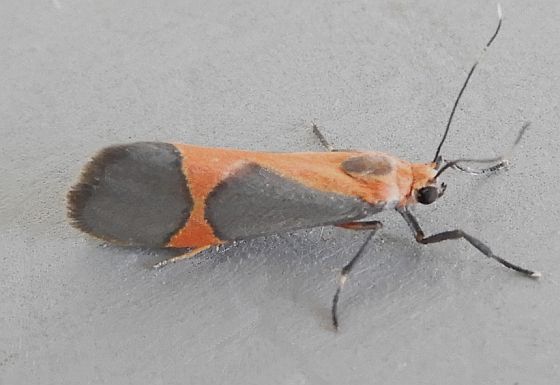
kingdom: Animalia
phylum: Arthropoda
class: Insecta
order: Lepidoptera
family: Erebidae
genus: Cisthene
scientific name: Cisthene martini
